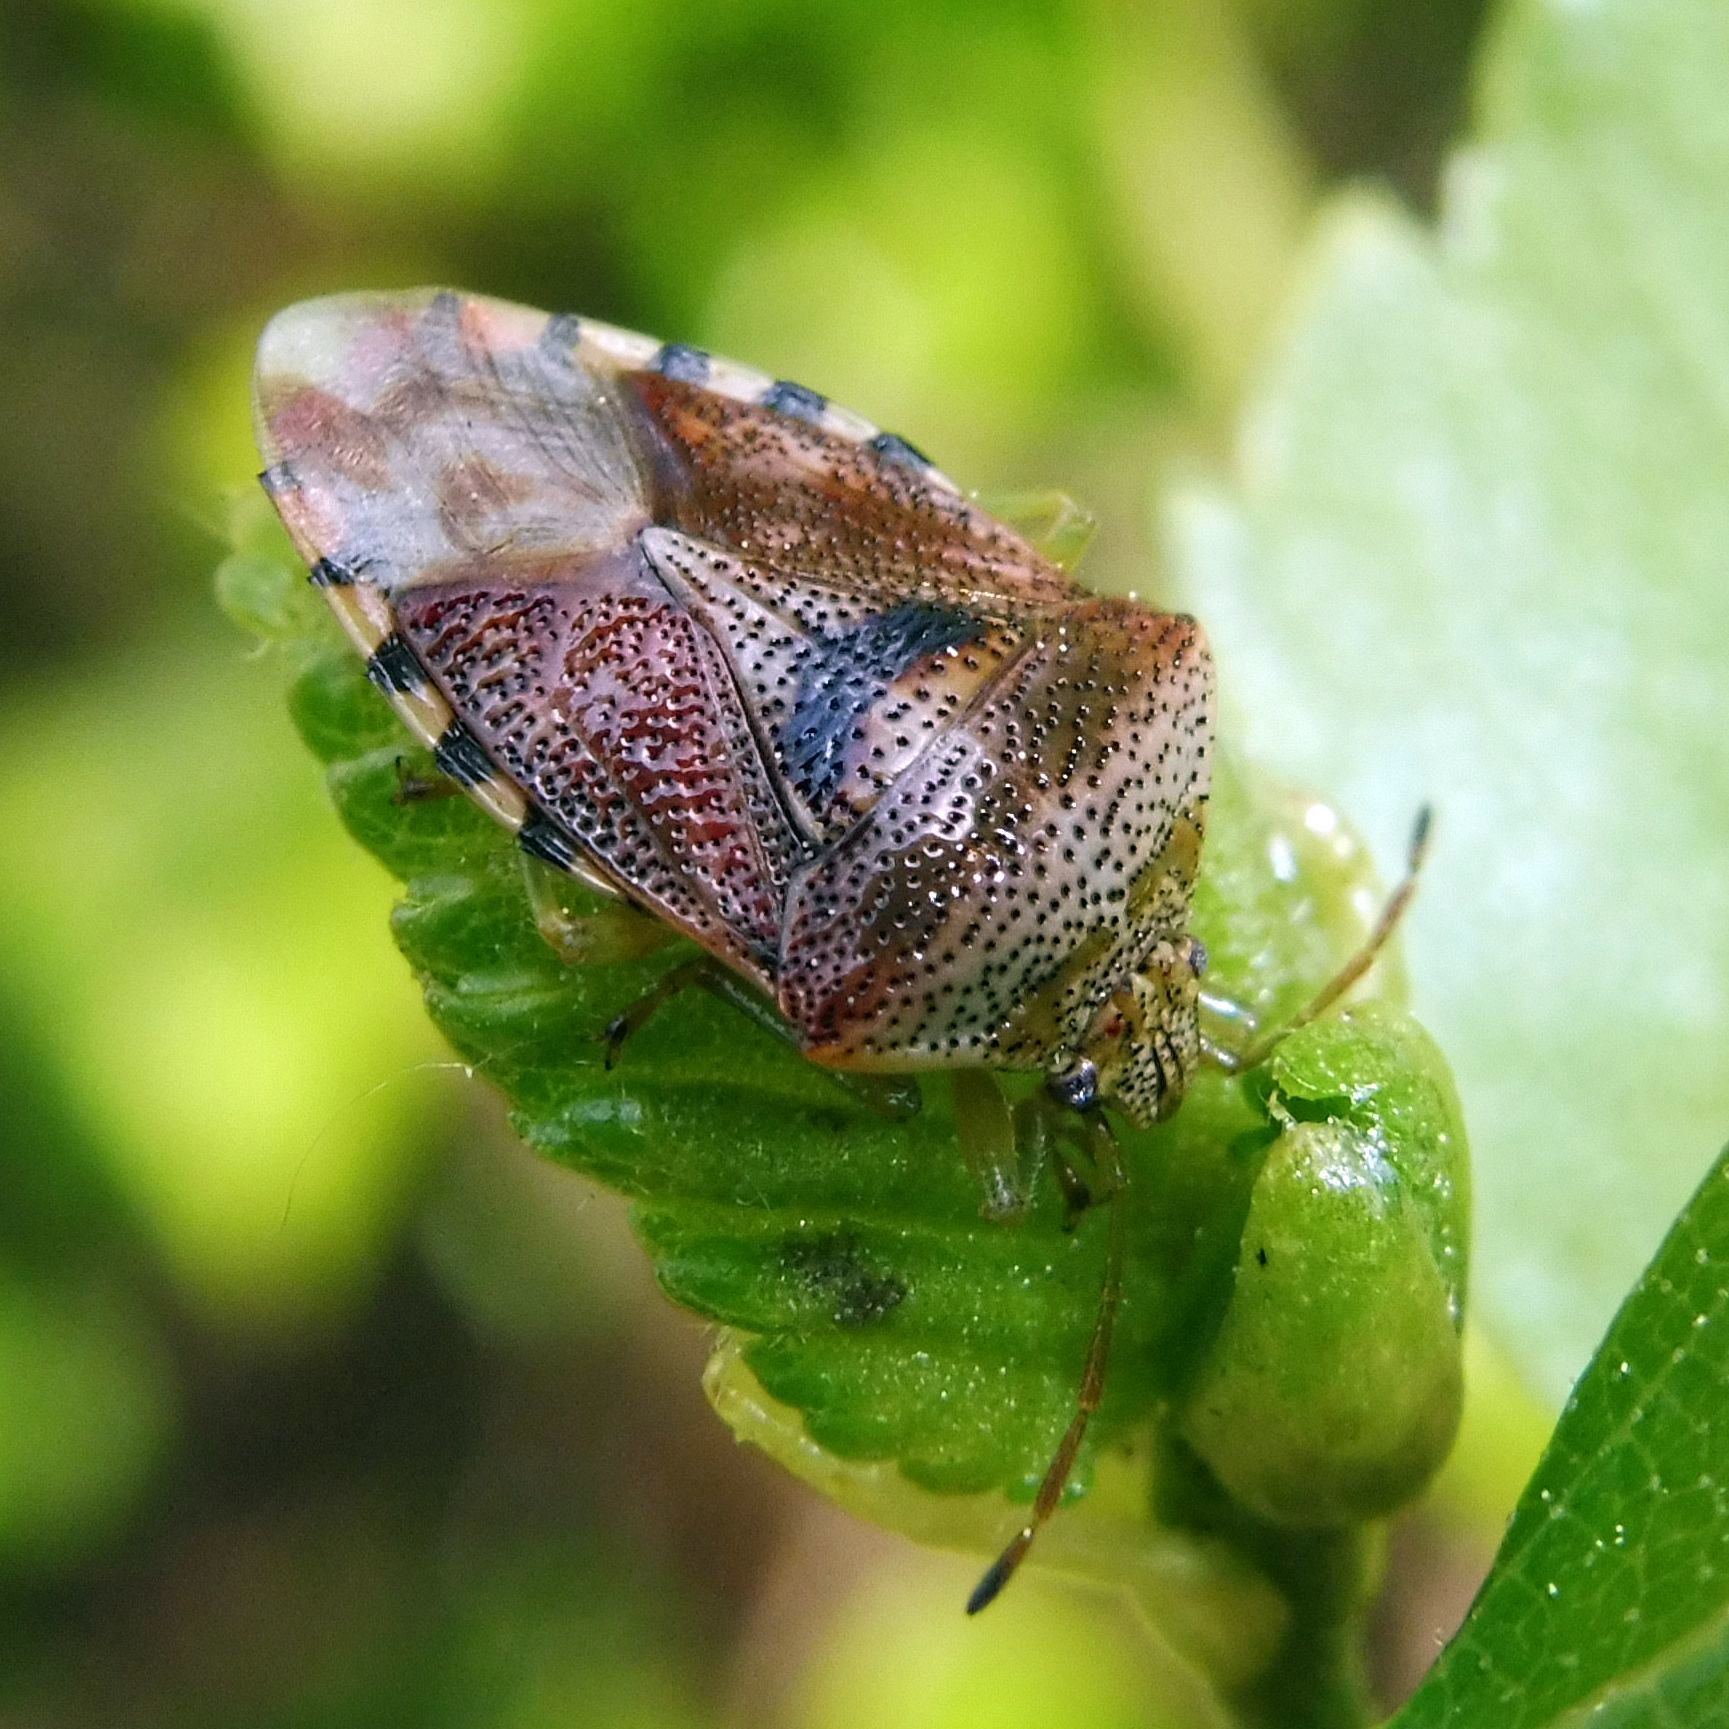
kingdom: Animalia
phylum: Arthropoda
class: Insecta
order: Hemiptera
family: Acanthosomatidae
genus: Elasmucha
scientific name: Elasmucha grisea
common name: Parent bug
